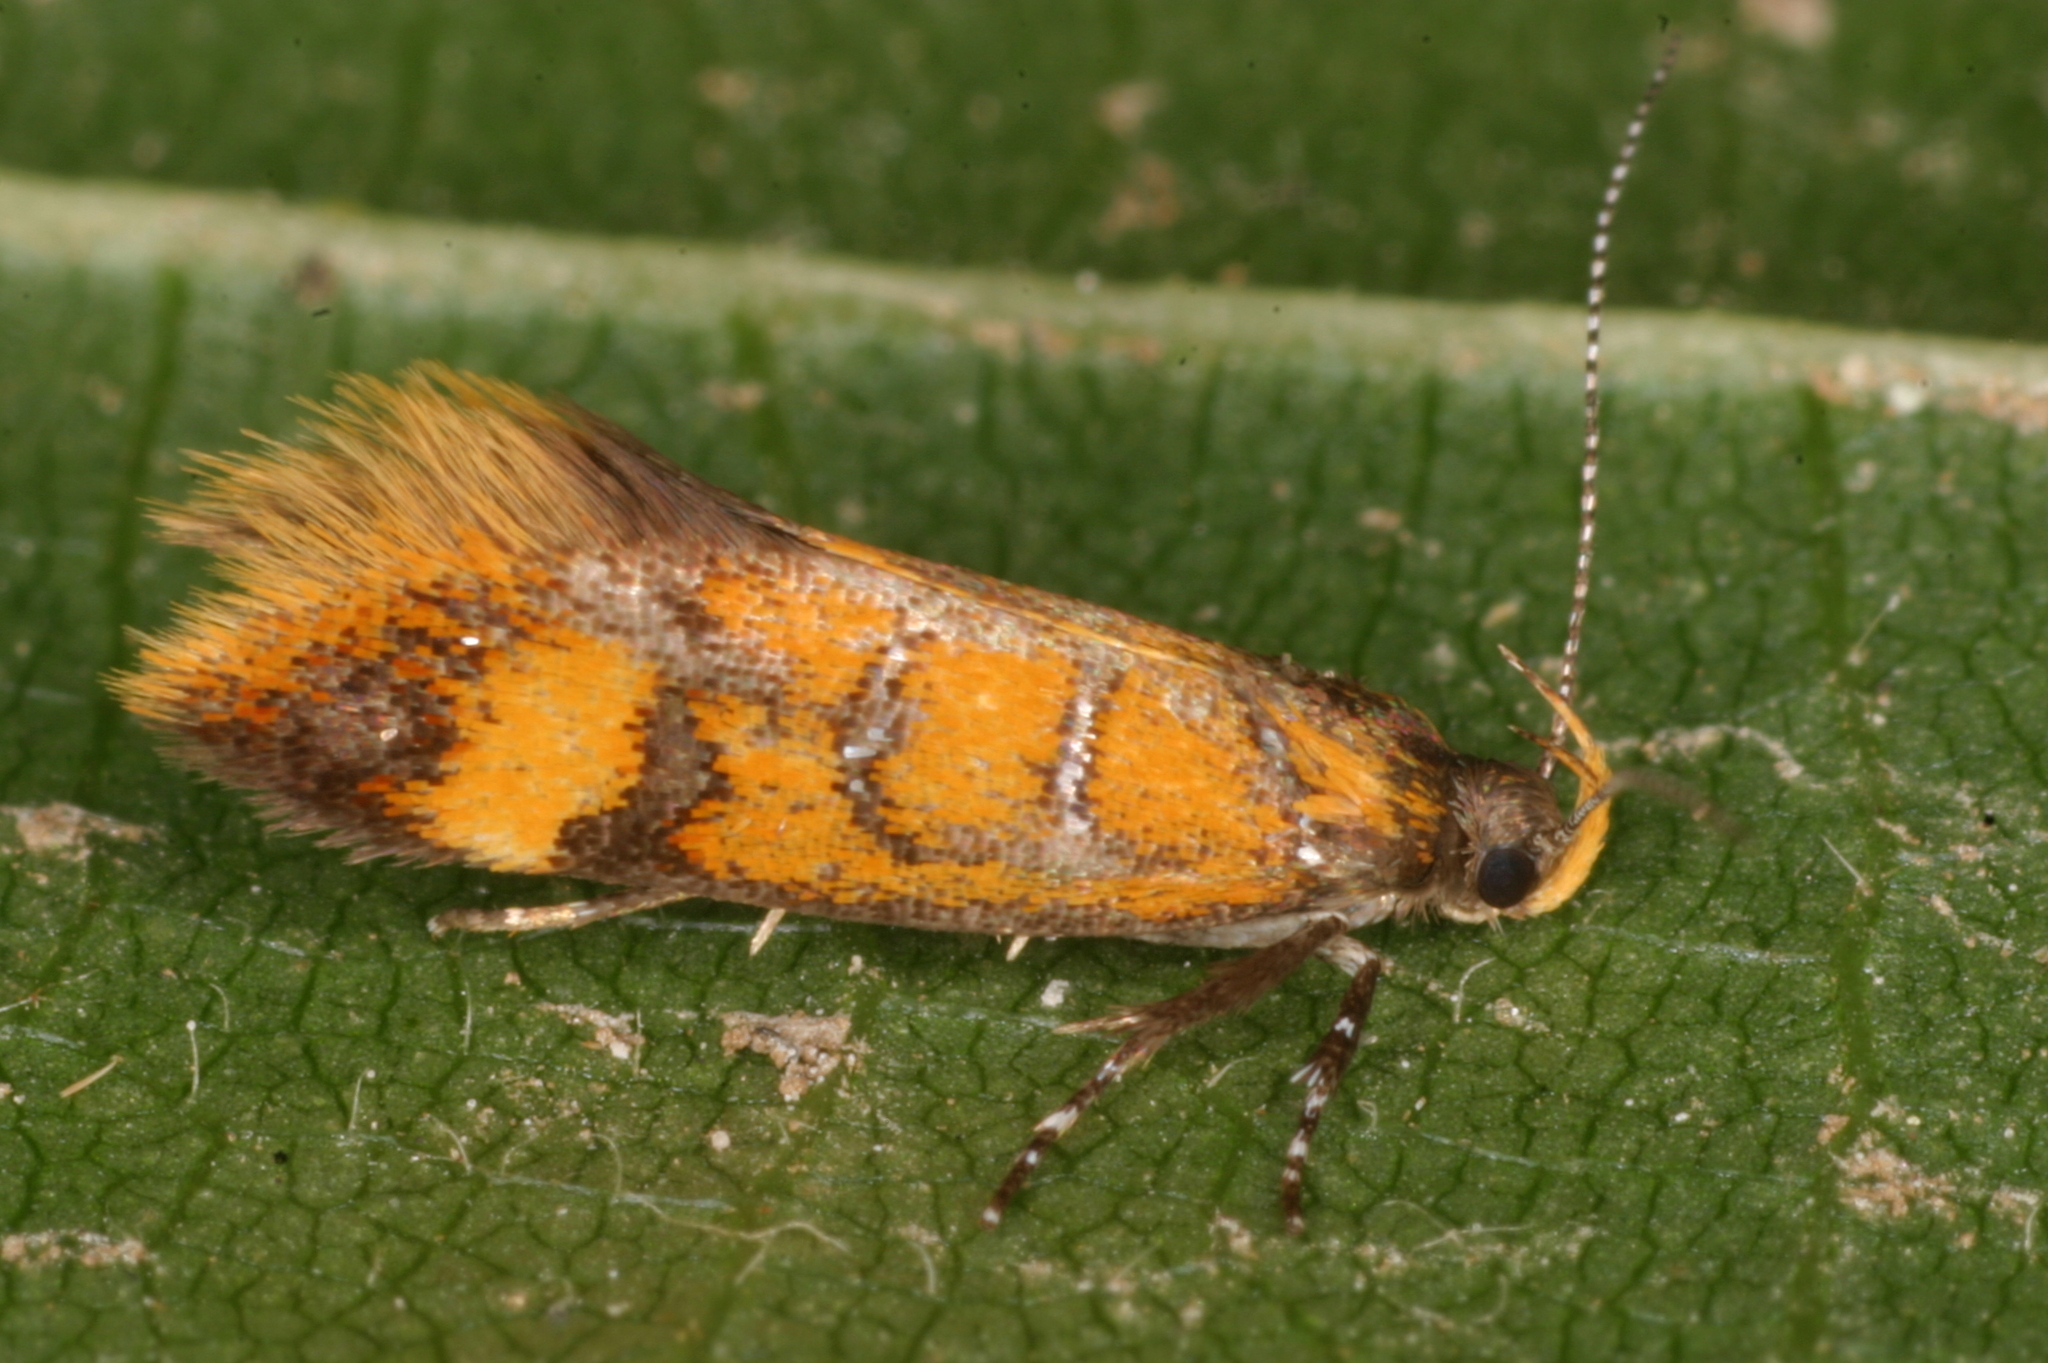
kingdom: Animalia
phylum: Arthropoda
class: Insecta
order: Lepidoptera
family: Oecophoridae
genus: Schiffermuelleria
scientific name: Schiffermuelleria procerella
